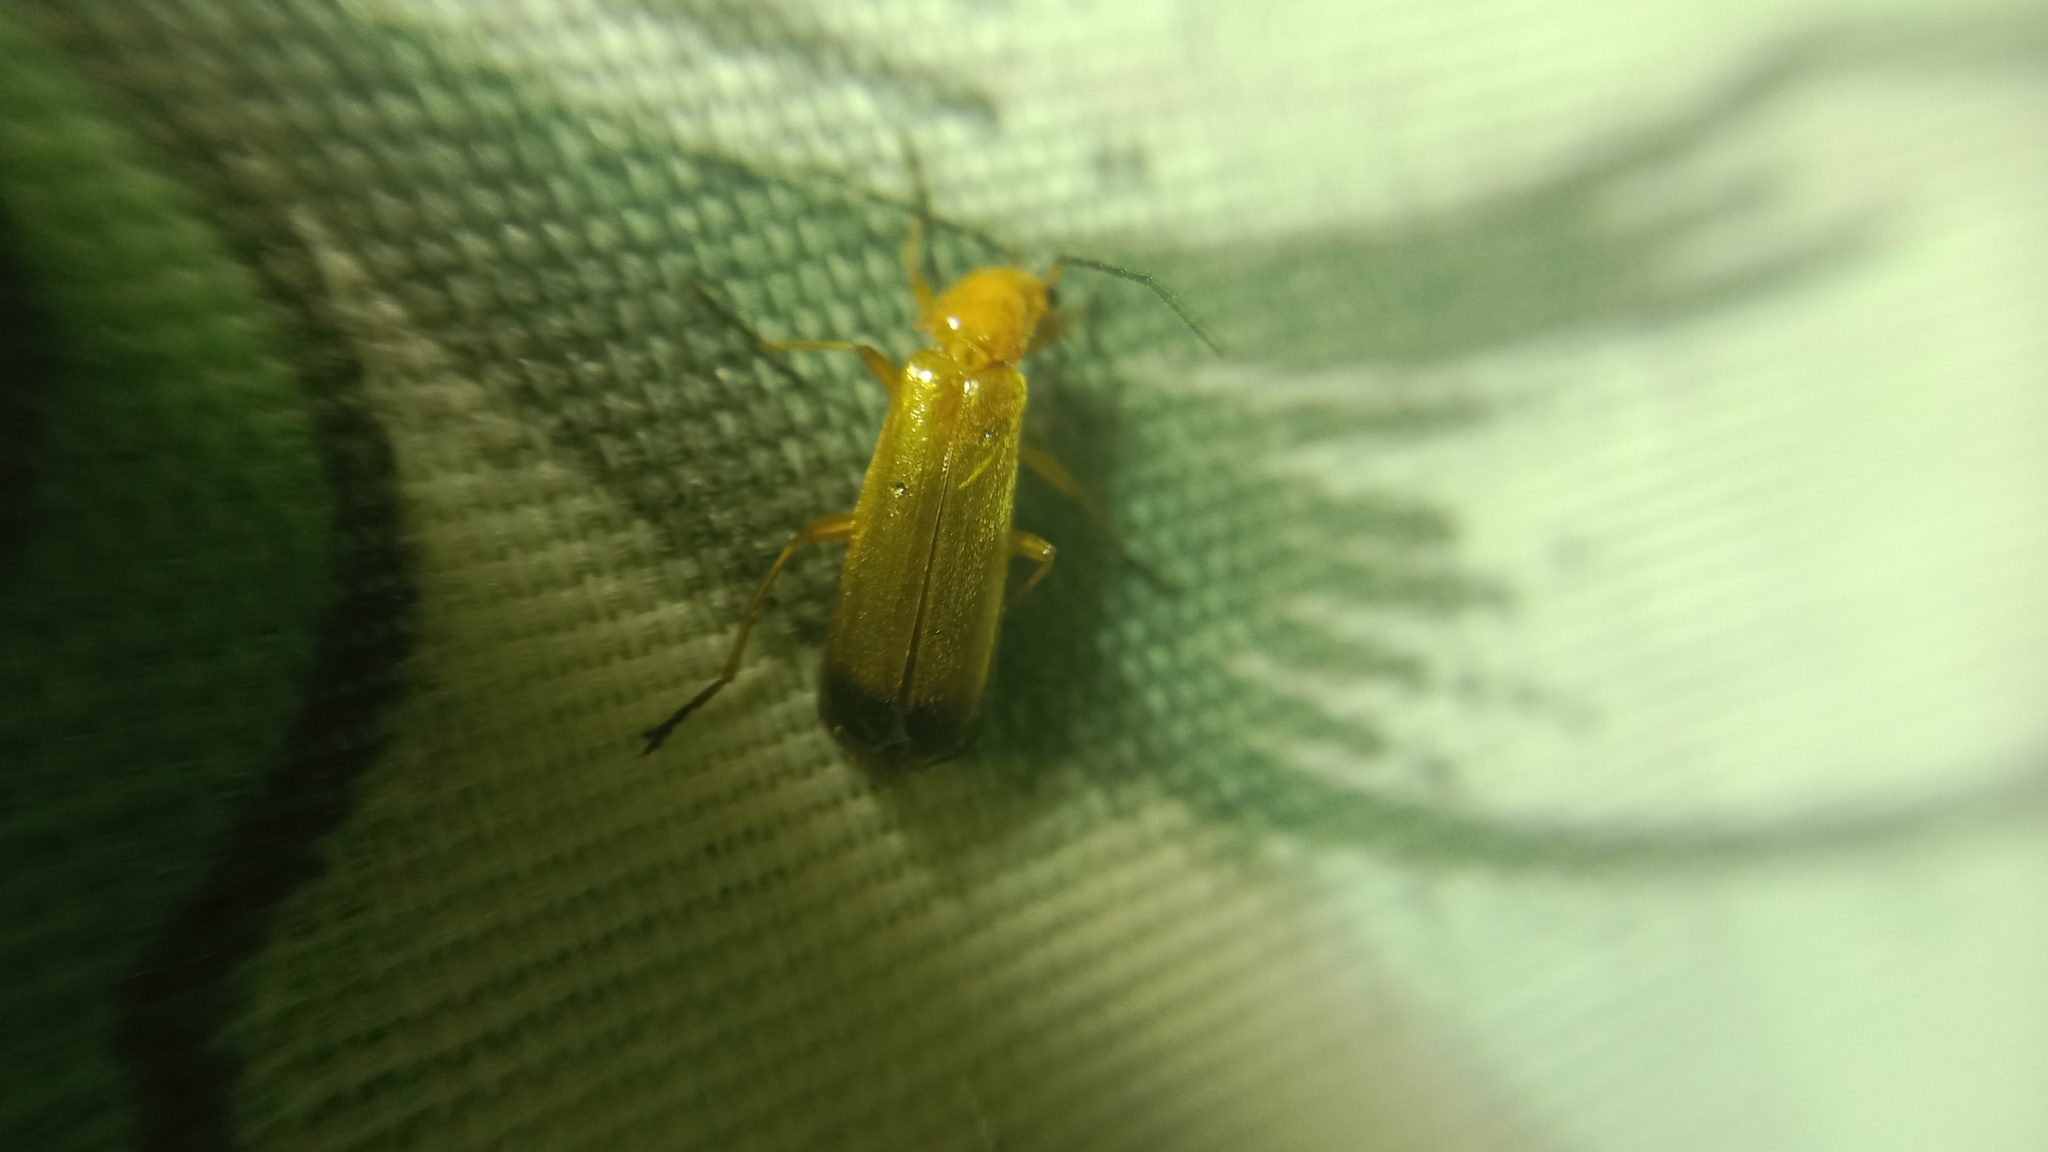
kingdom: Animalia
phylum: Arthropoda
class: Insecta
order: Coleoptera
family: Cantharidae
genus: Rhagonycha
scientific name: Rhagonycha fulva
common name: Common red soldier beetle
